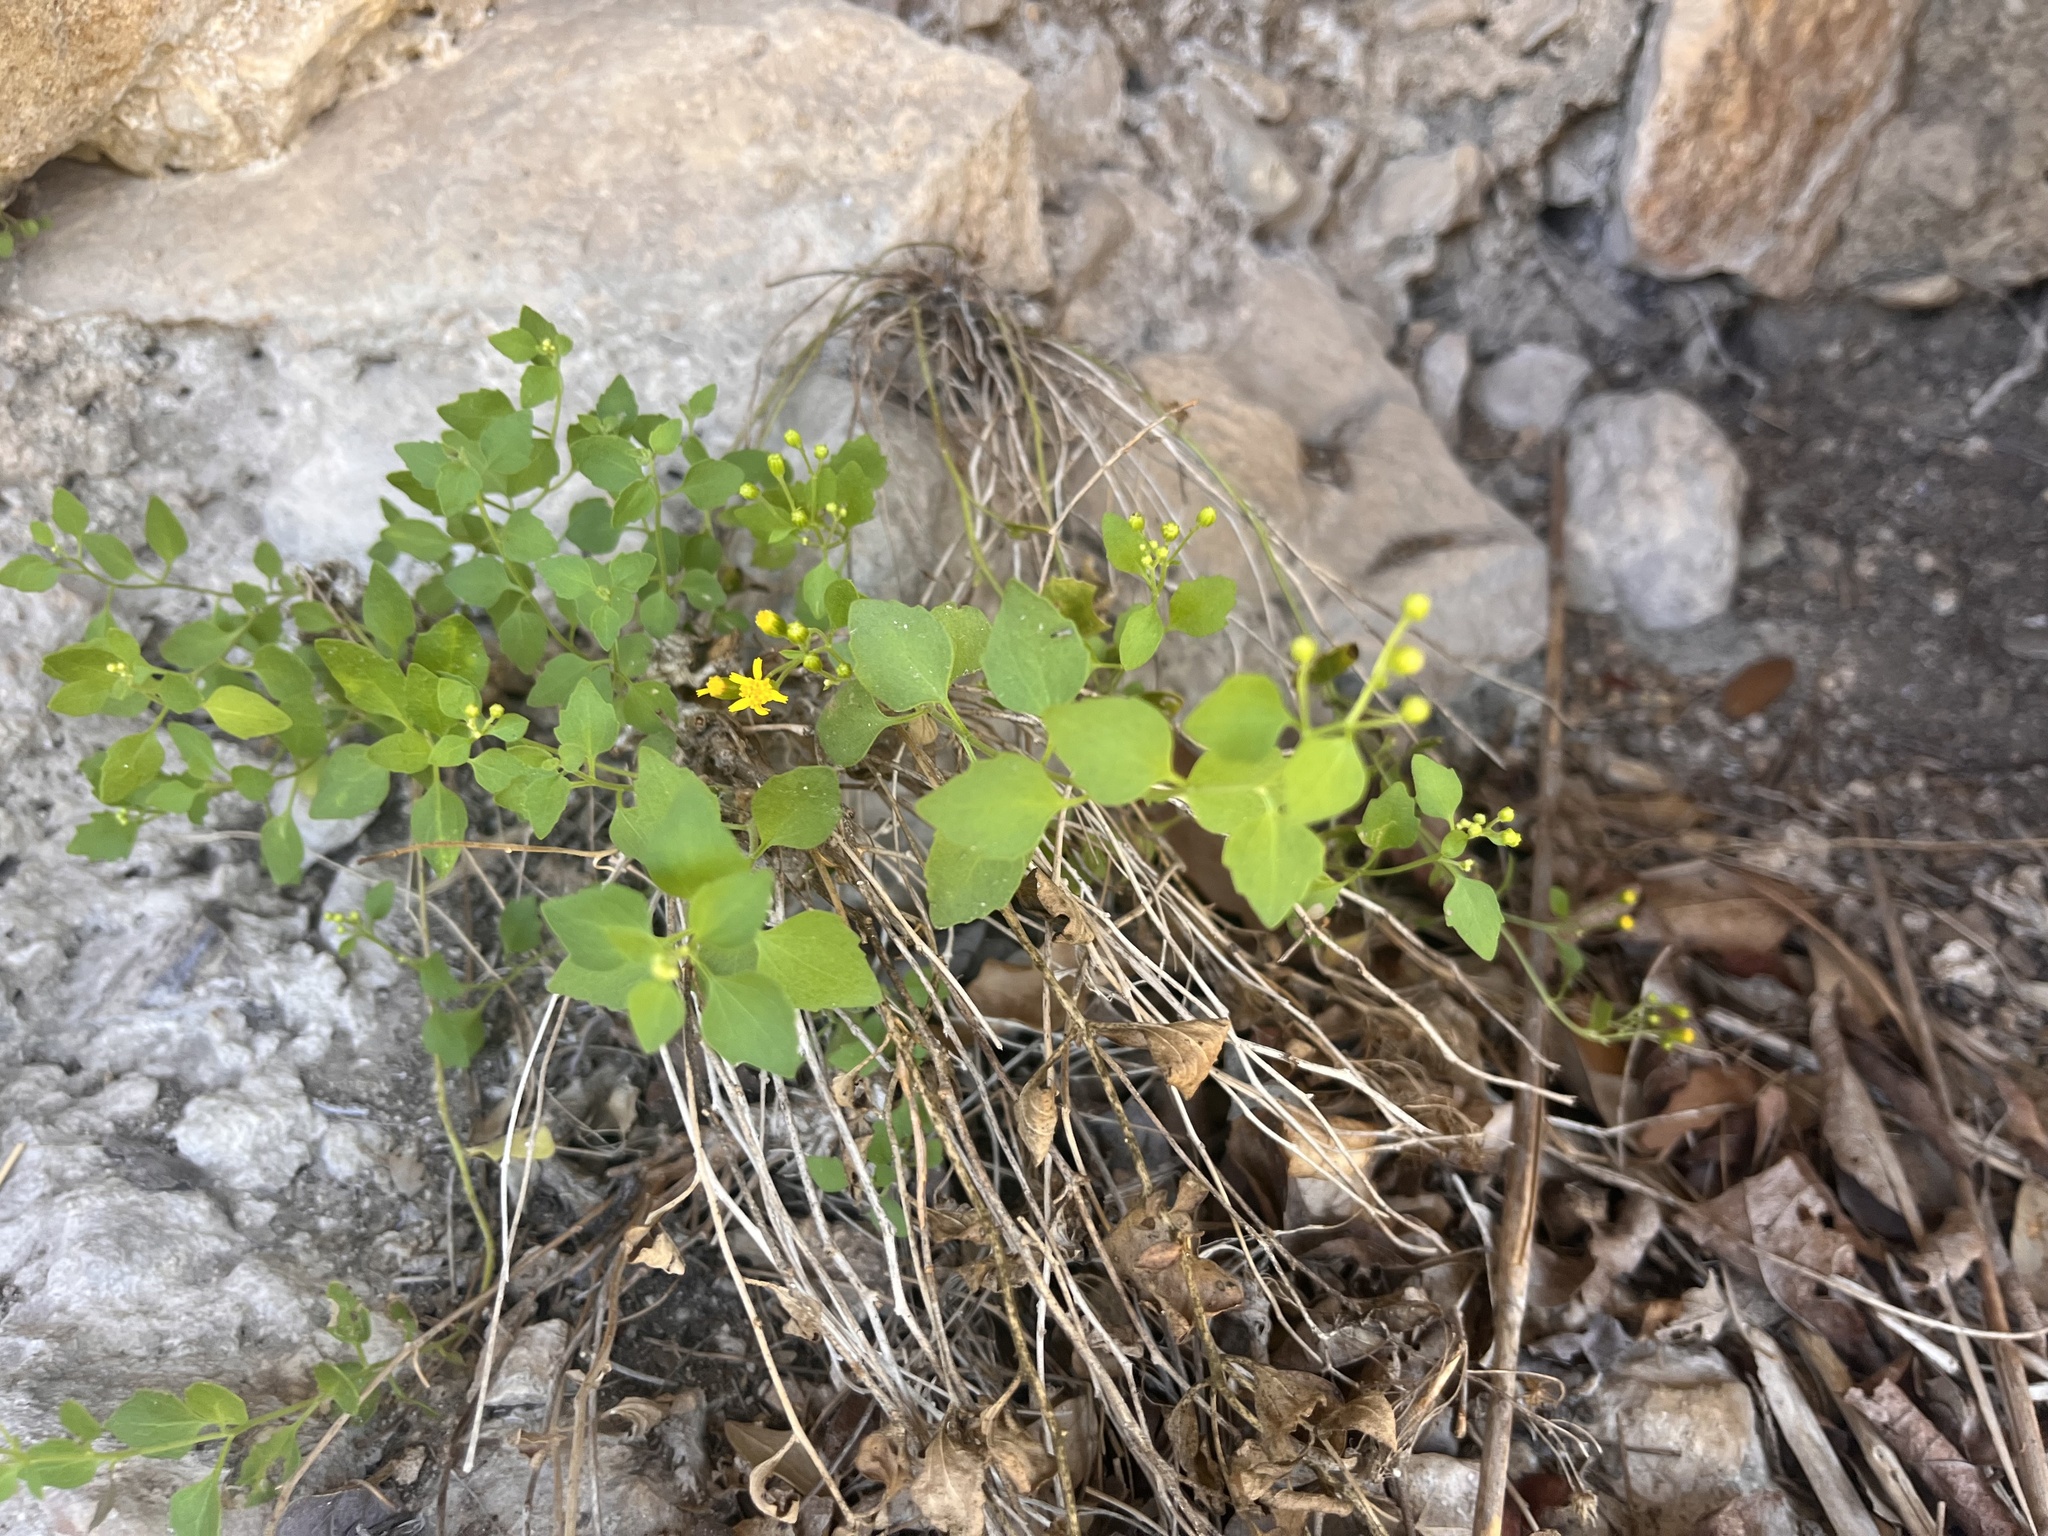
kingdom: Plantae
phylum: Tracheophyta
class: Magnoliopsida
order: Asterales
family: Asteraceae
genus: Laphamia
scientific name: Laphamia lindheimeri
